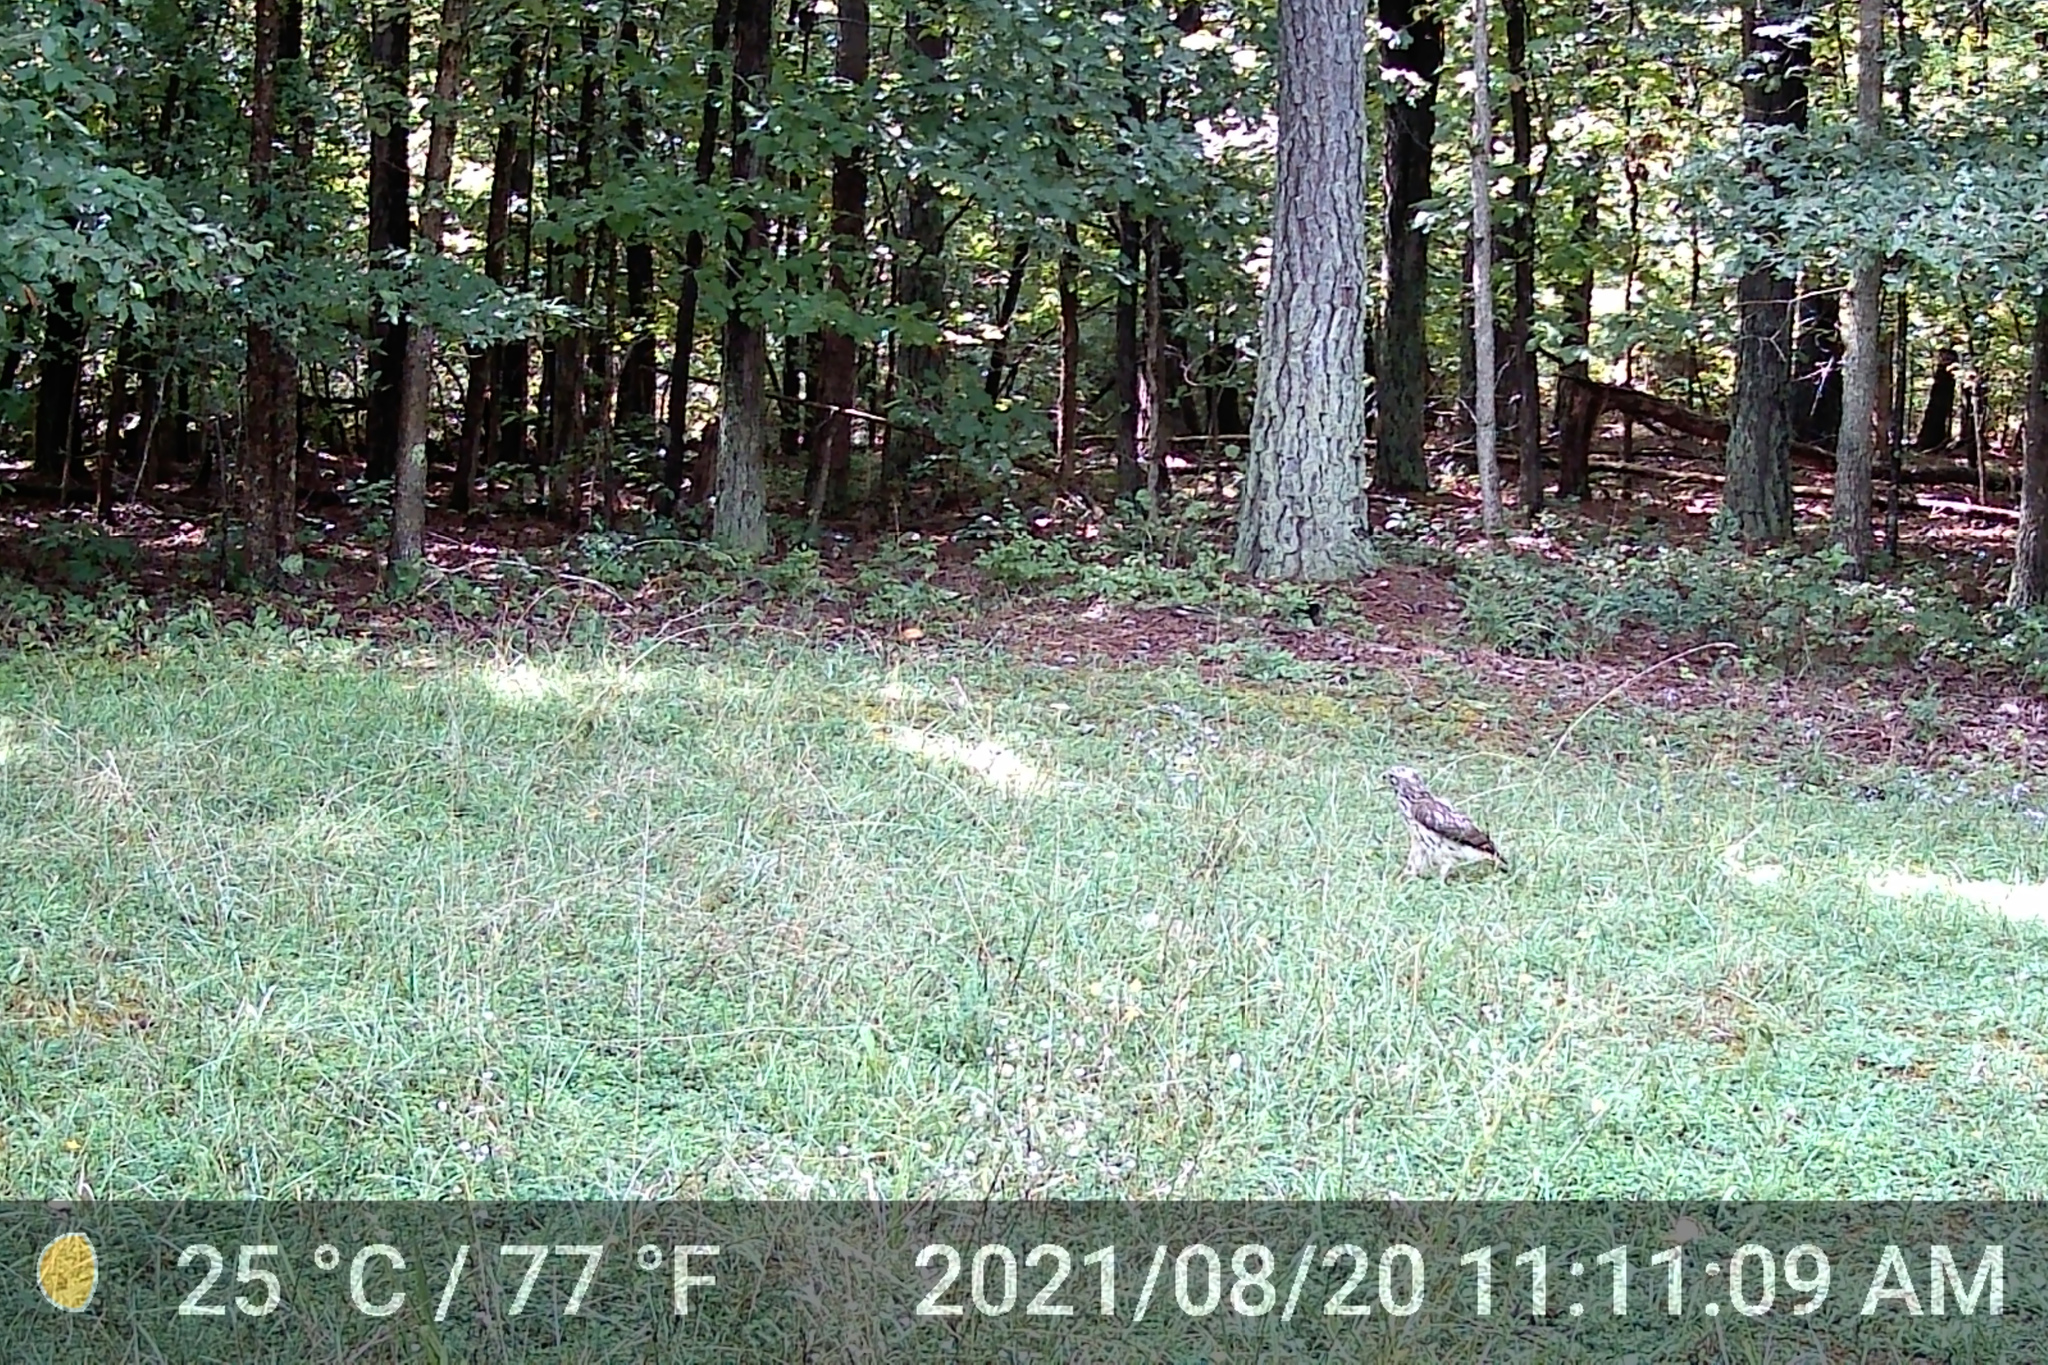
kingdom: Animalia
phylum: Chordata
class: Aves
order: Accipitriformes
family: Accipitridae
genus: Buteo
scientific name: Buteo lineatus
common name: Red-shouldered hawk
